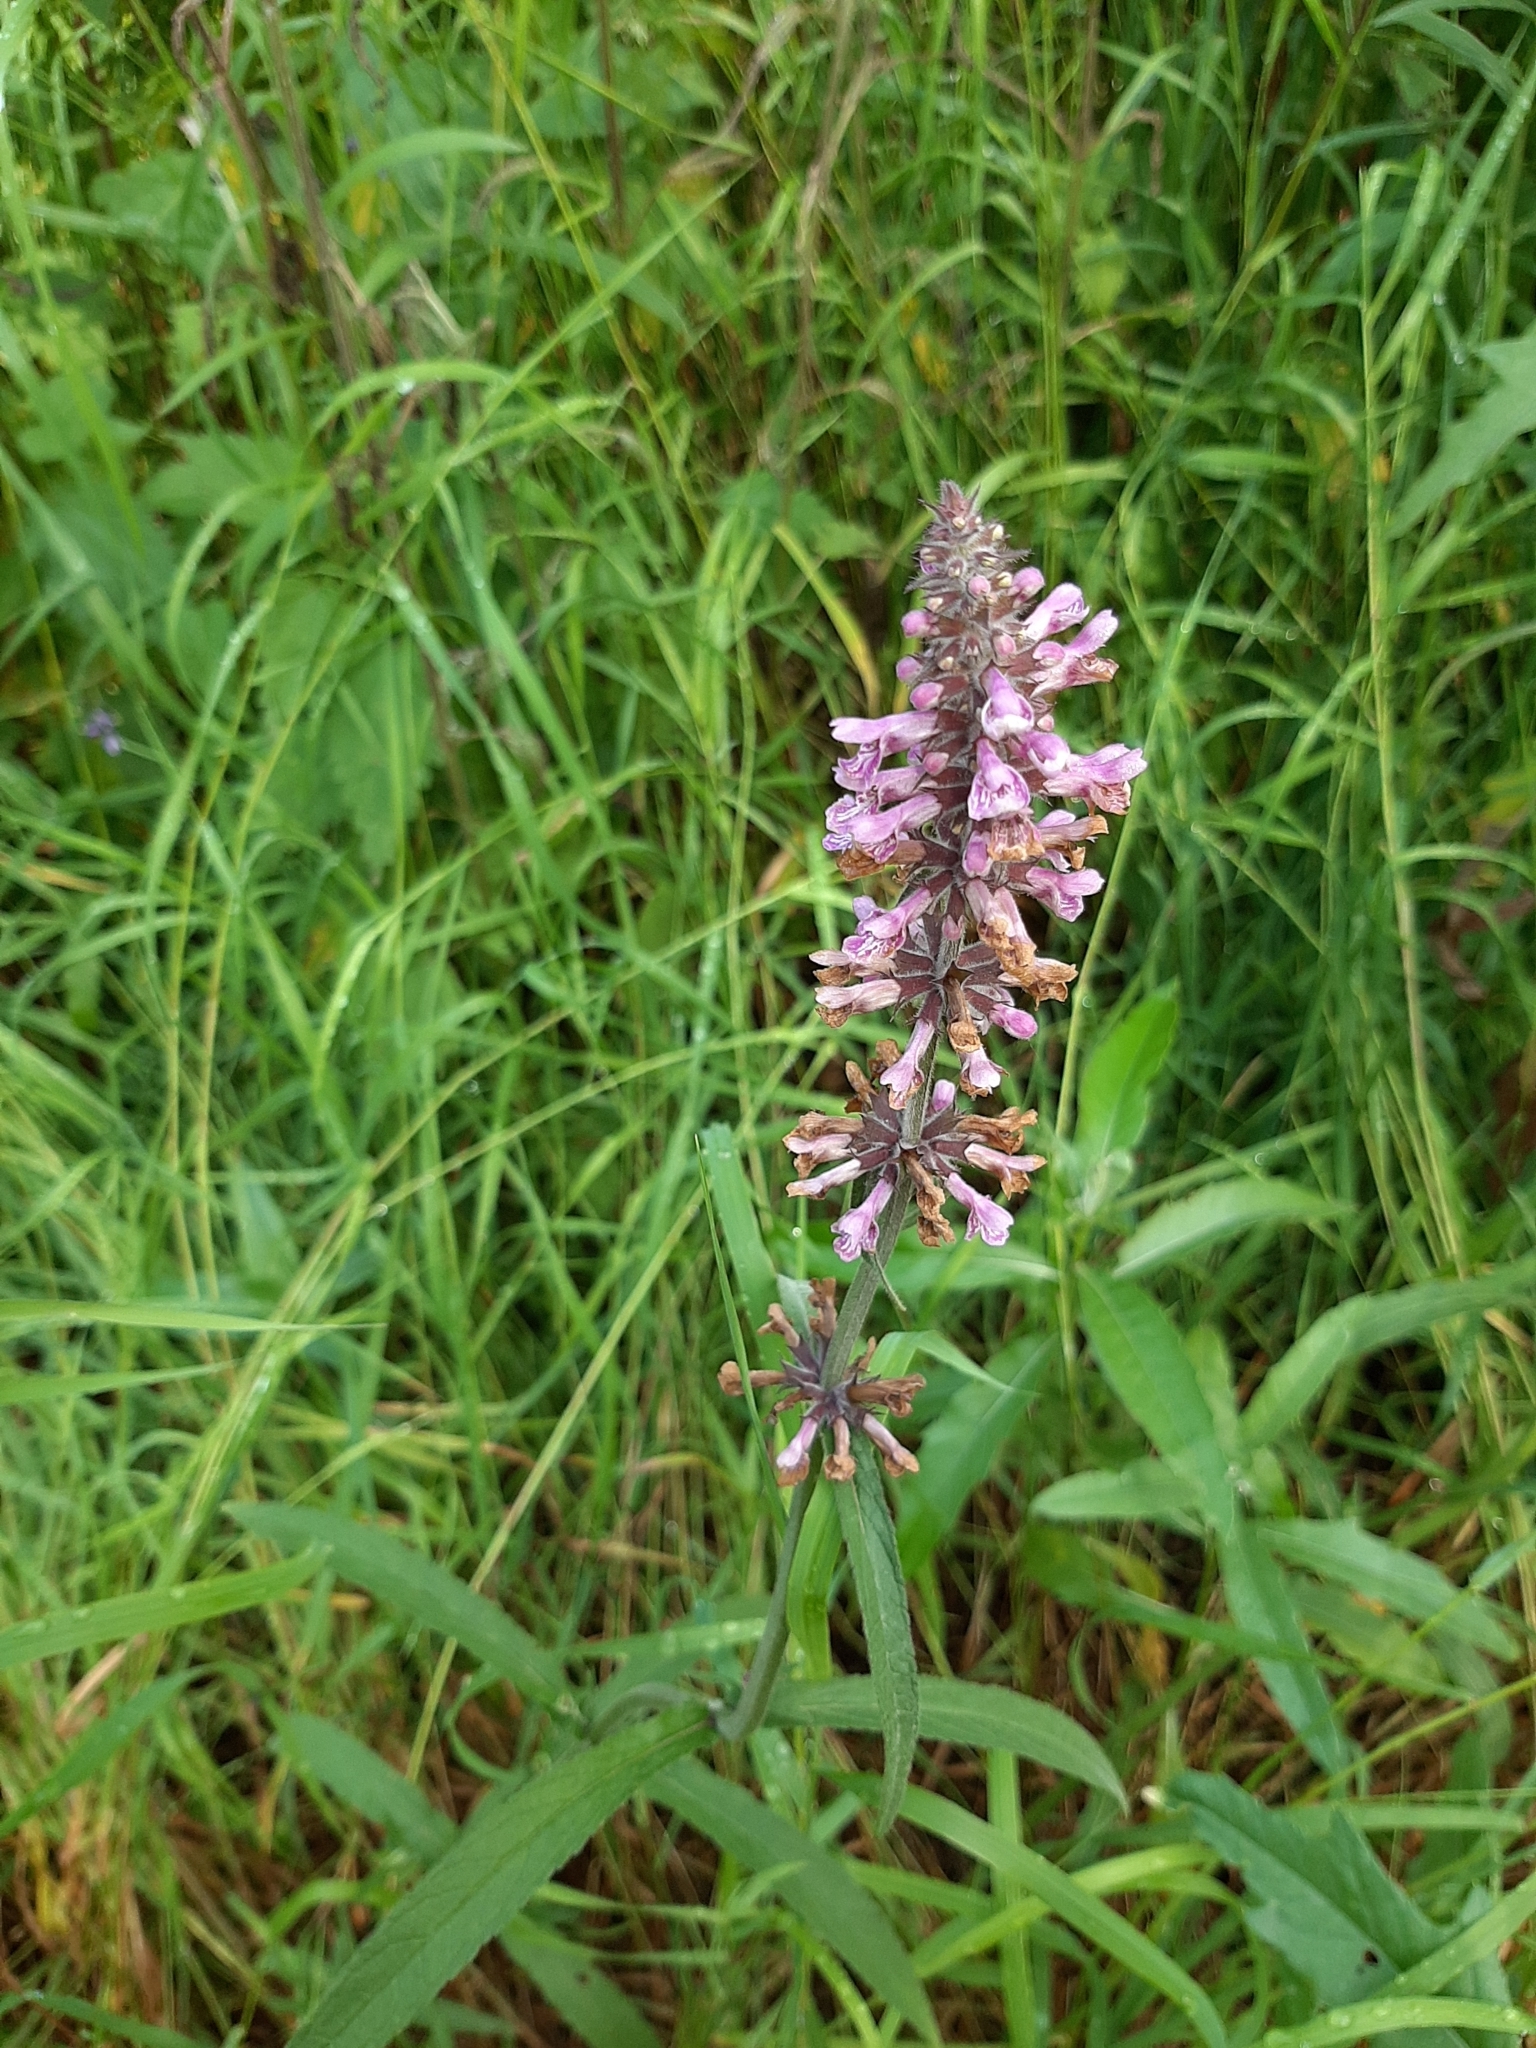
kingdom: Plantae
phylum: Tracheophyta
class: Magnoliopsida
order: Lamiales
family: Lamiaceae
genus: Stachys
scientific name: Stachys palustris
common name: Marsh woundwort
